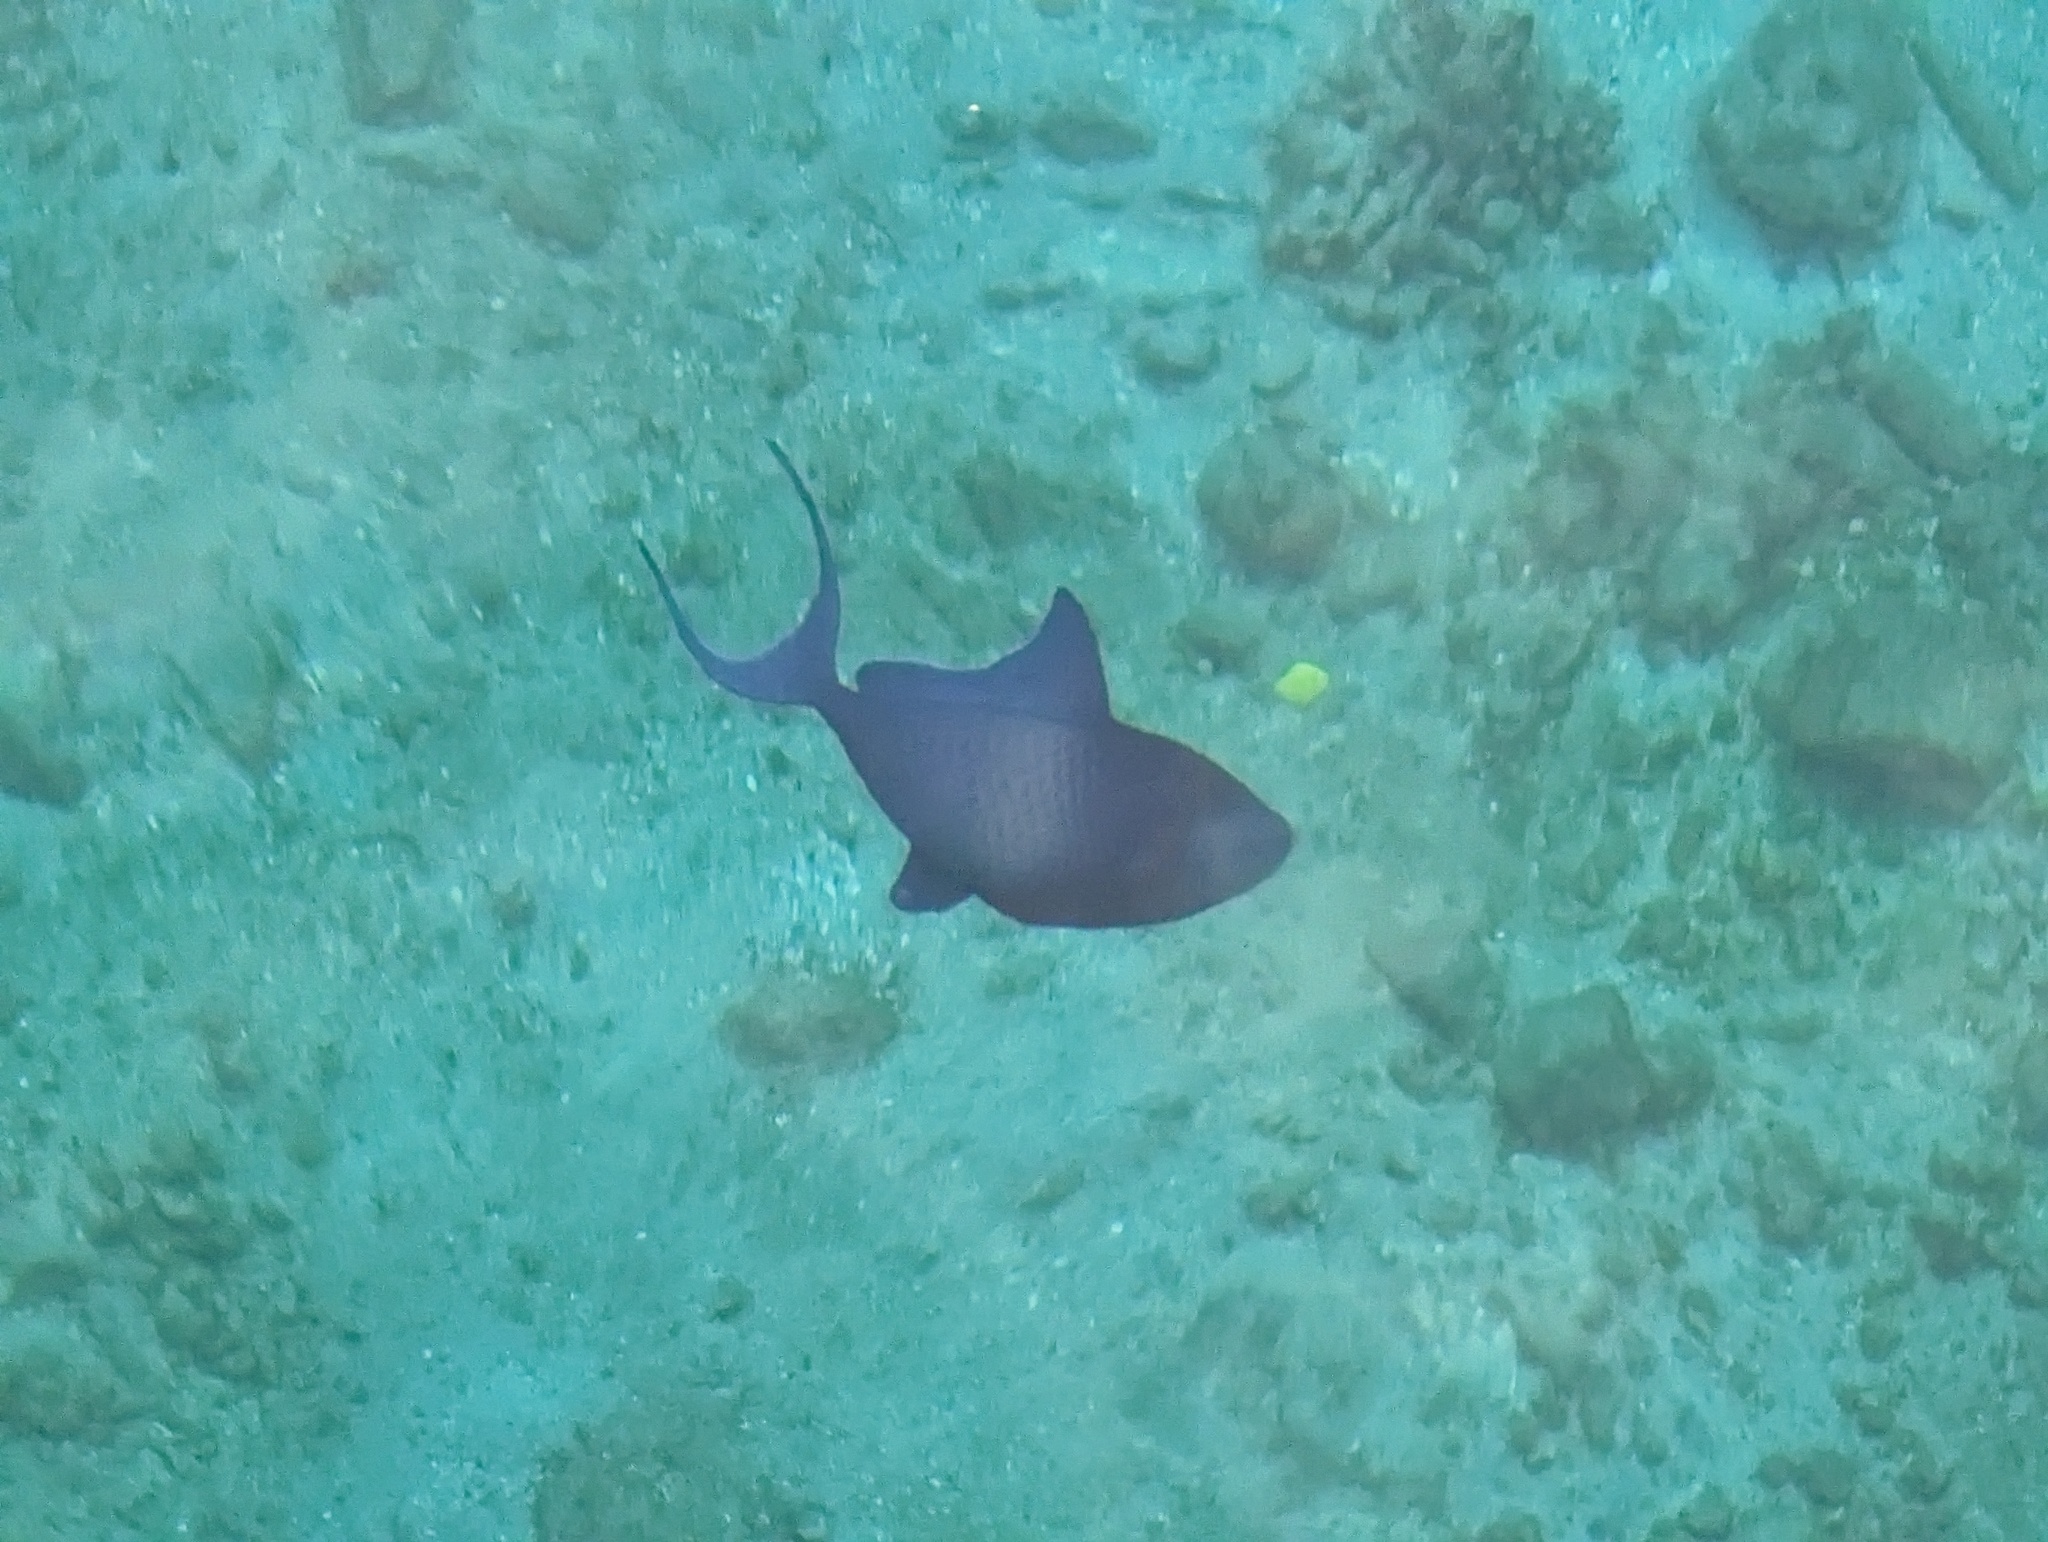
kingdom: Animalia
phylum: Chordata
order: Tetraodontiformes
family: Balistidae
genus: Odonus
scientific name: Odonus niger
